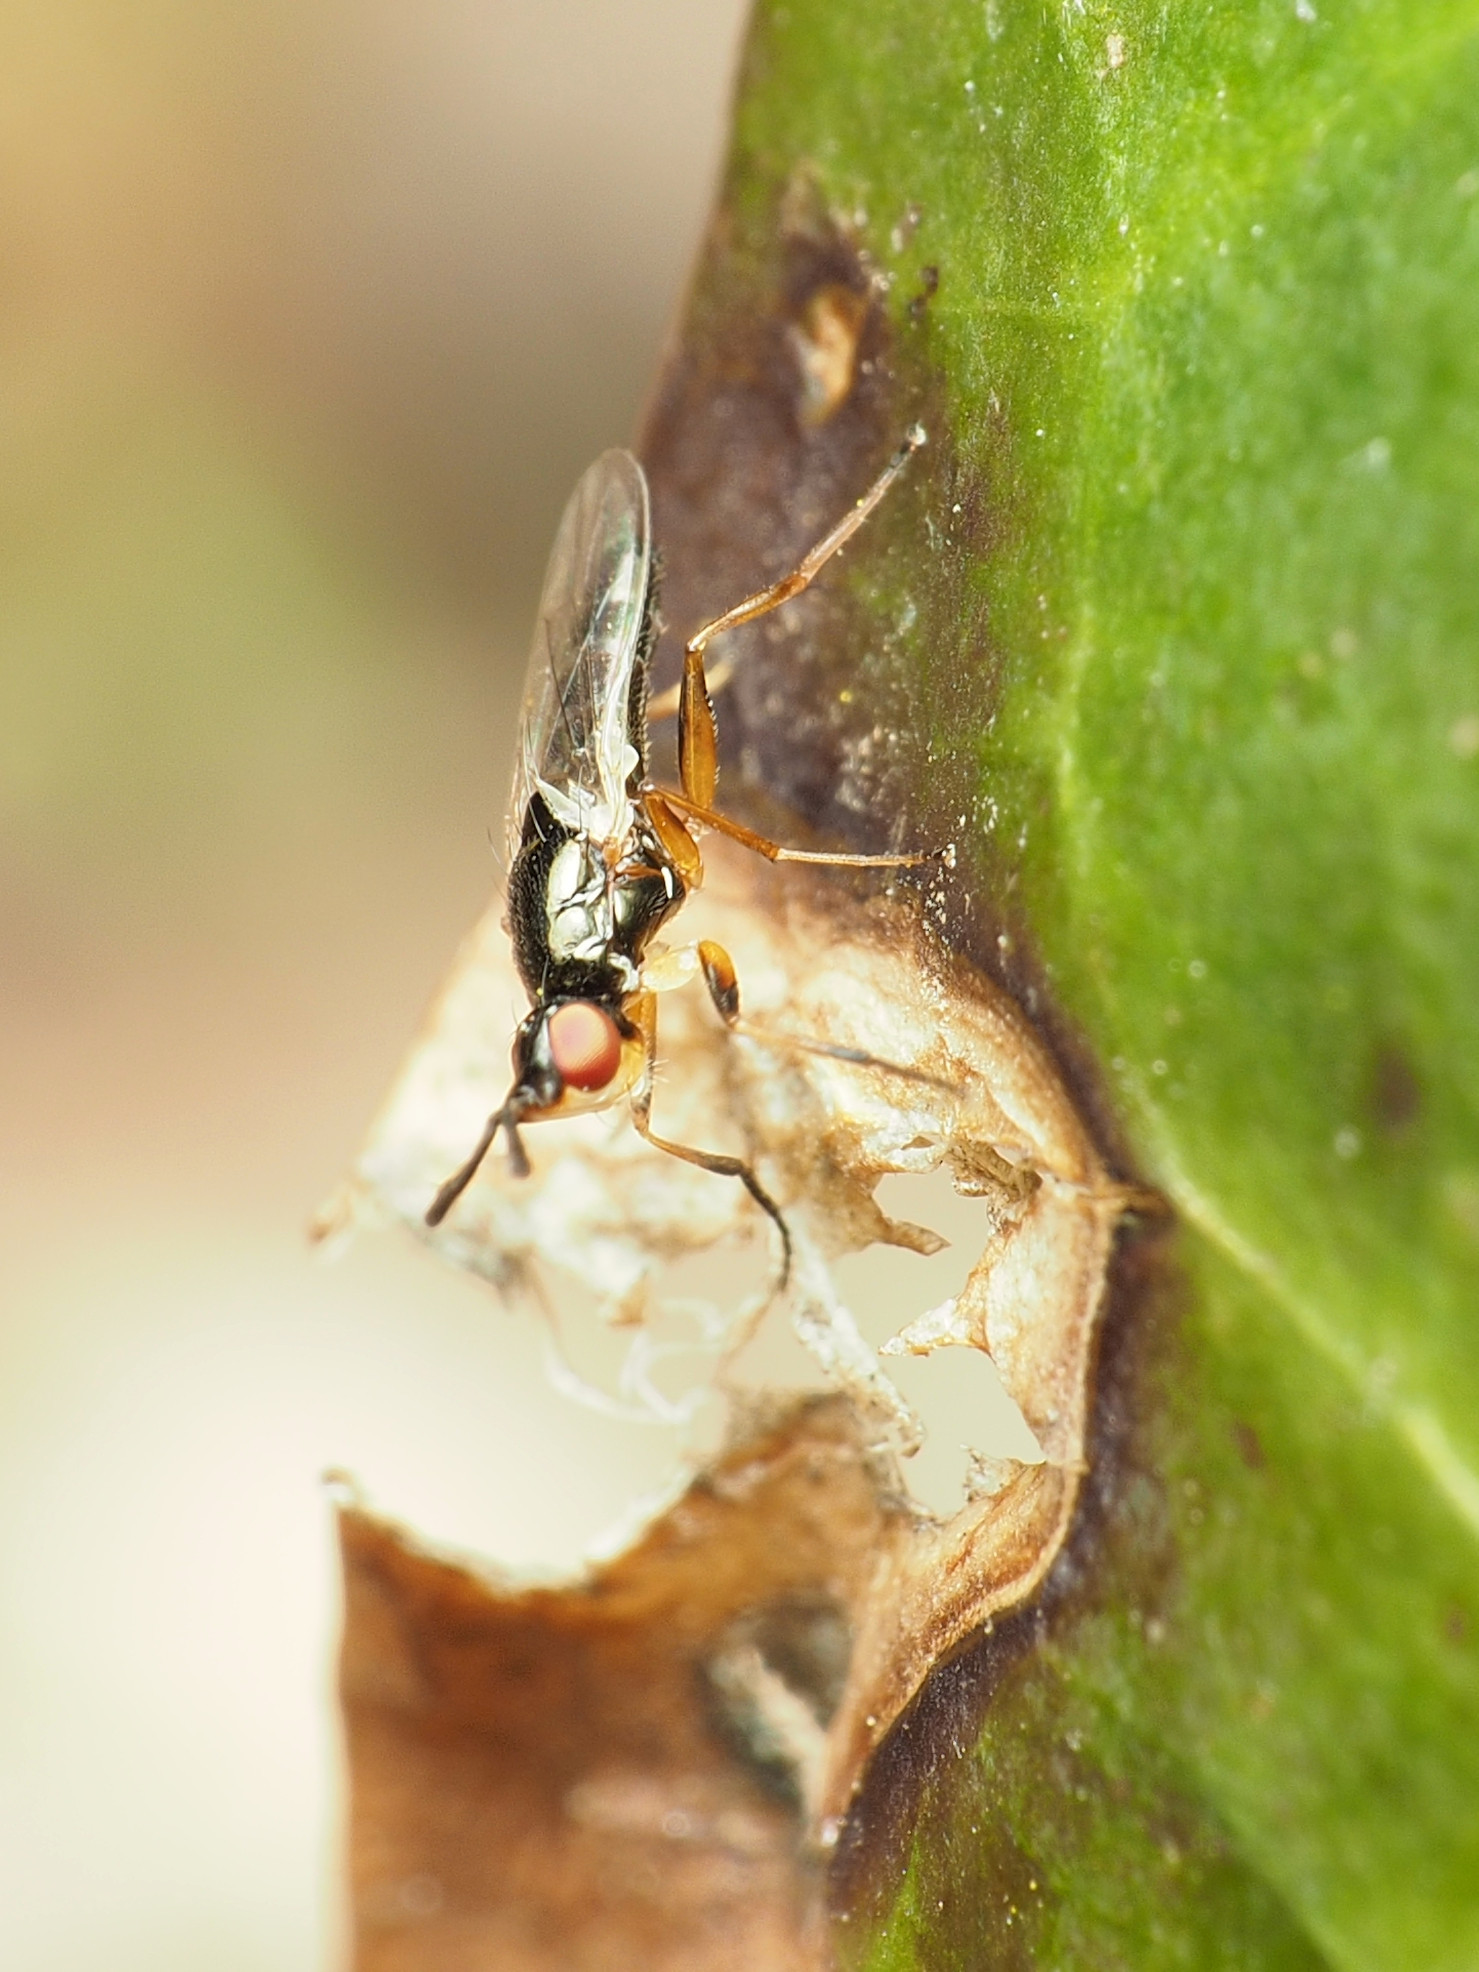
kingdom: Animalia
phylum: Arthropoda
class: Insecta
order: Diptera
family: Piophilidae
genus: Prochyliza
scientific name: Prochyliza xanthostoma
